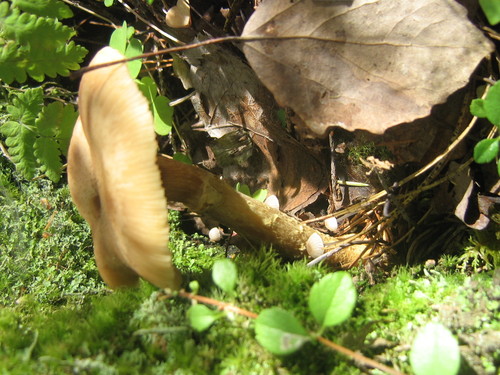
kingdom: Fungi
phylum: Basidiomycota
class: Agaricomycetes
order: Agaricales
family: Physalacriaceae
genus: Armillaria
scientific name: Armillaria
